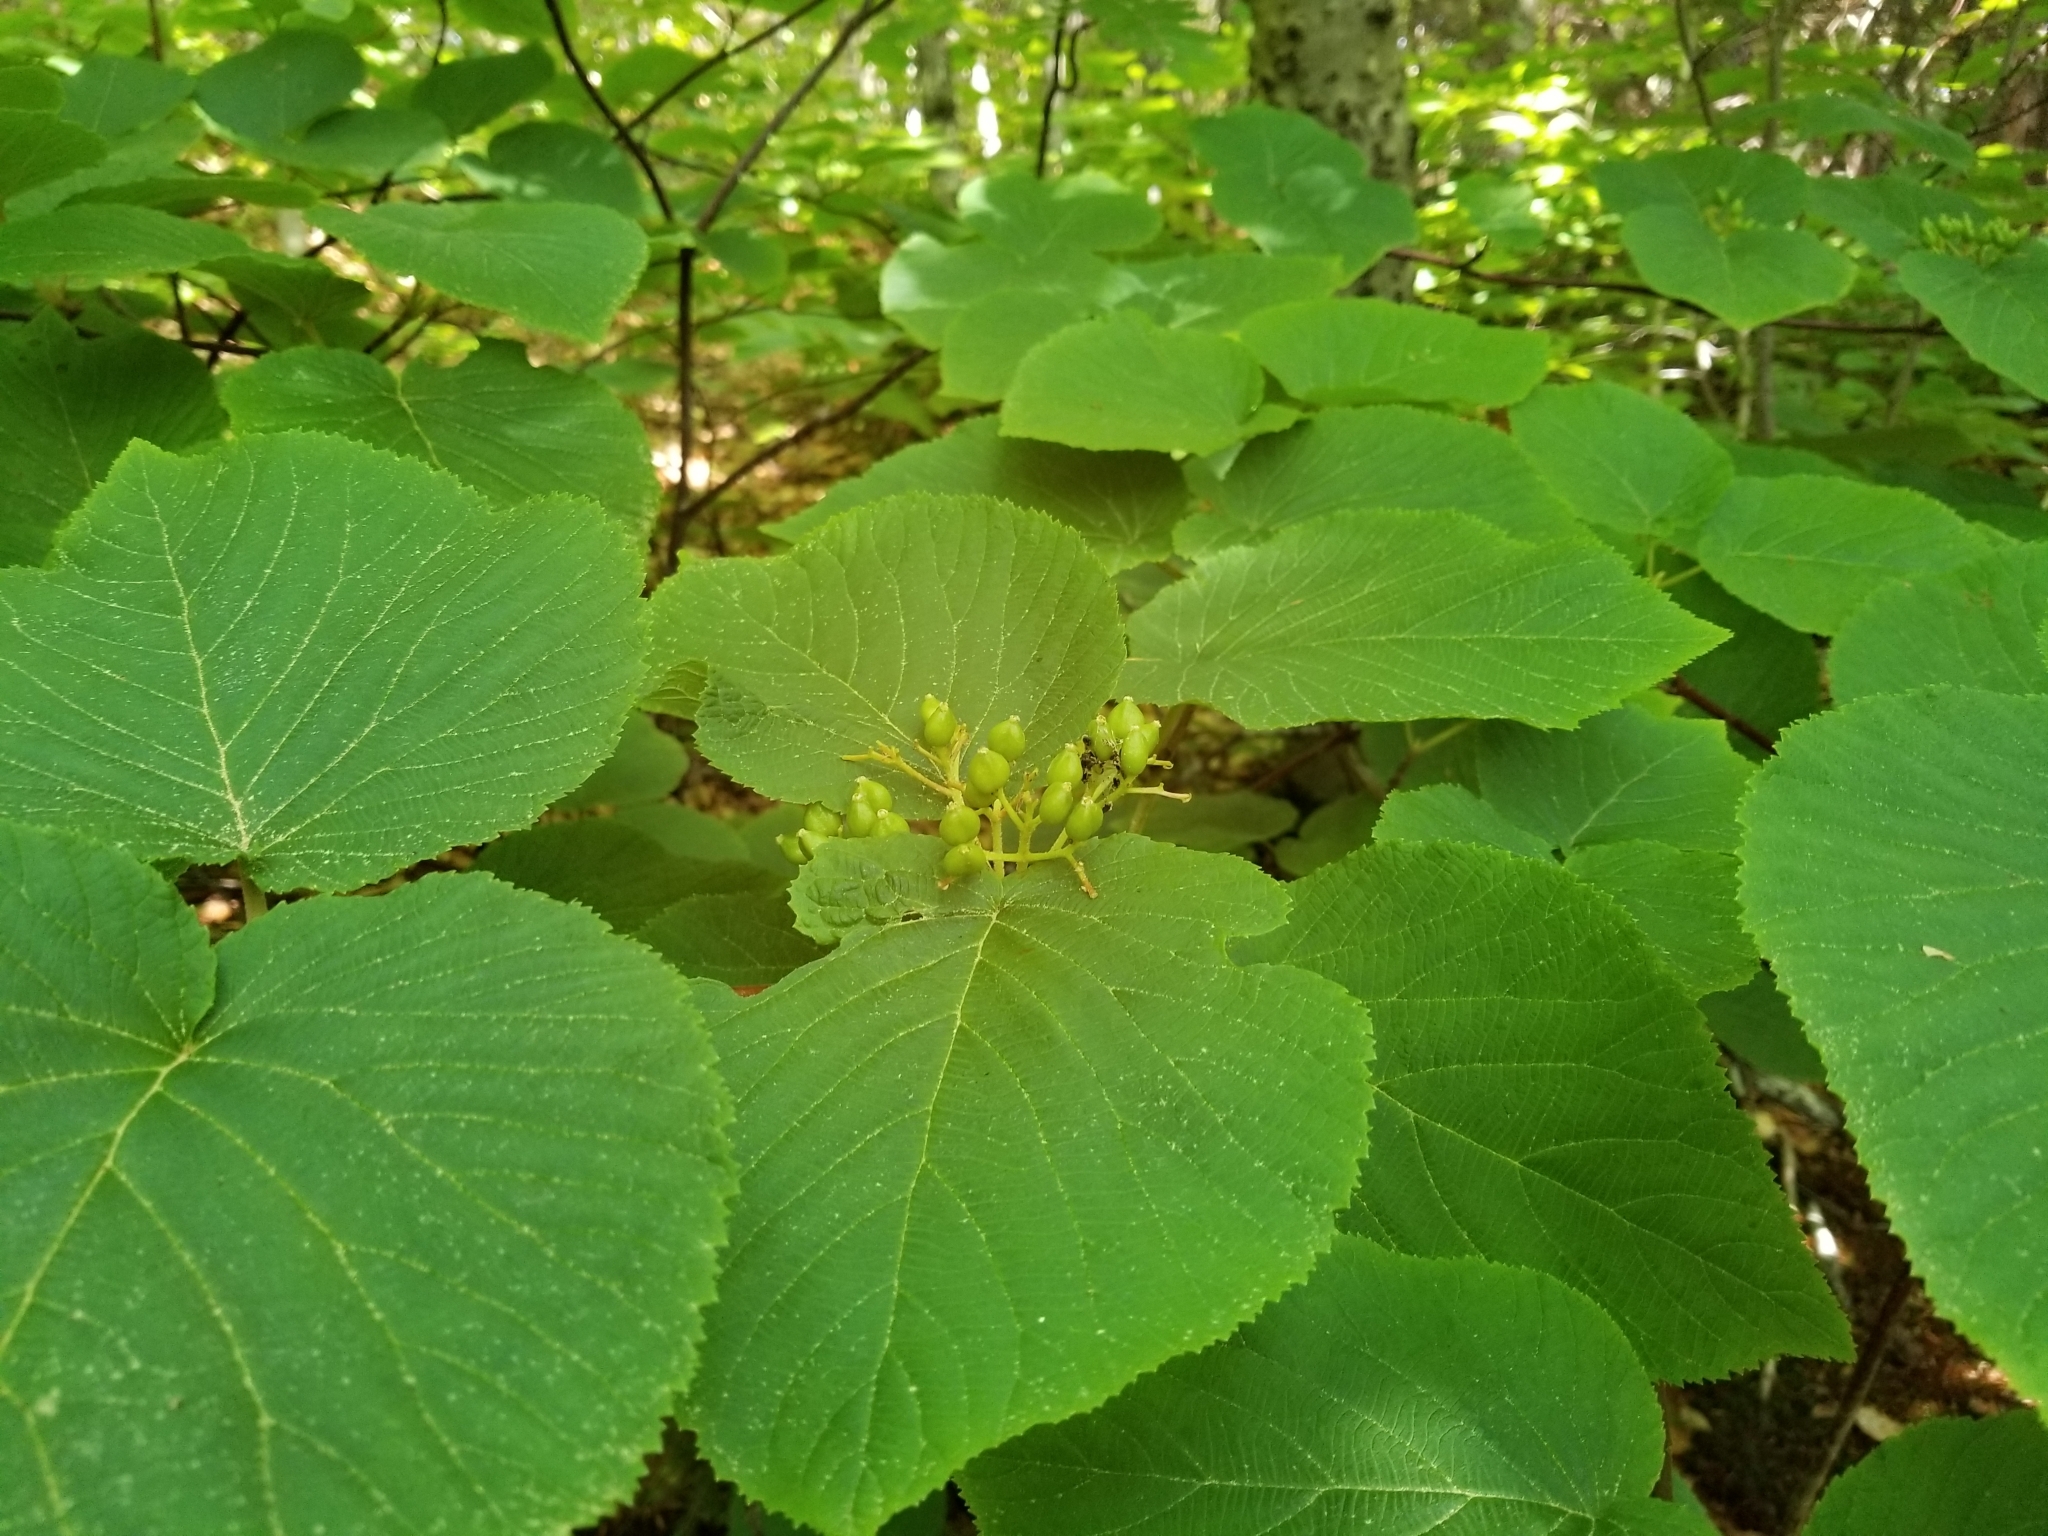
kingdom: Plantae
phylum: Tracheophyta
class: Magnoliopsida
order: Dipsacales
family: Viburnaceae
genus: Viburnum
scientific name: Viburnum lantanoides
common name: Hobblebush
